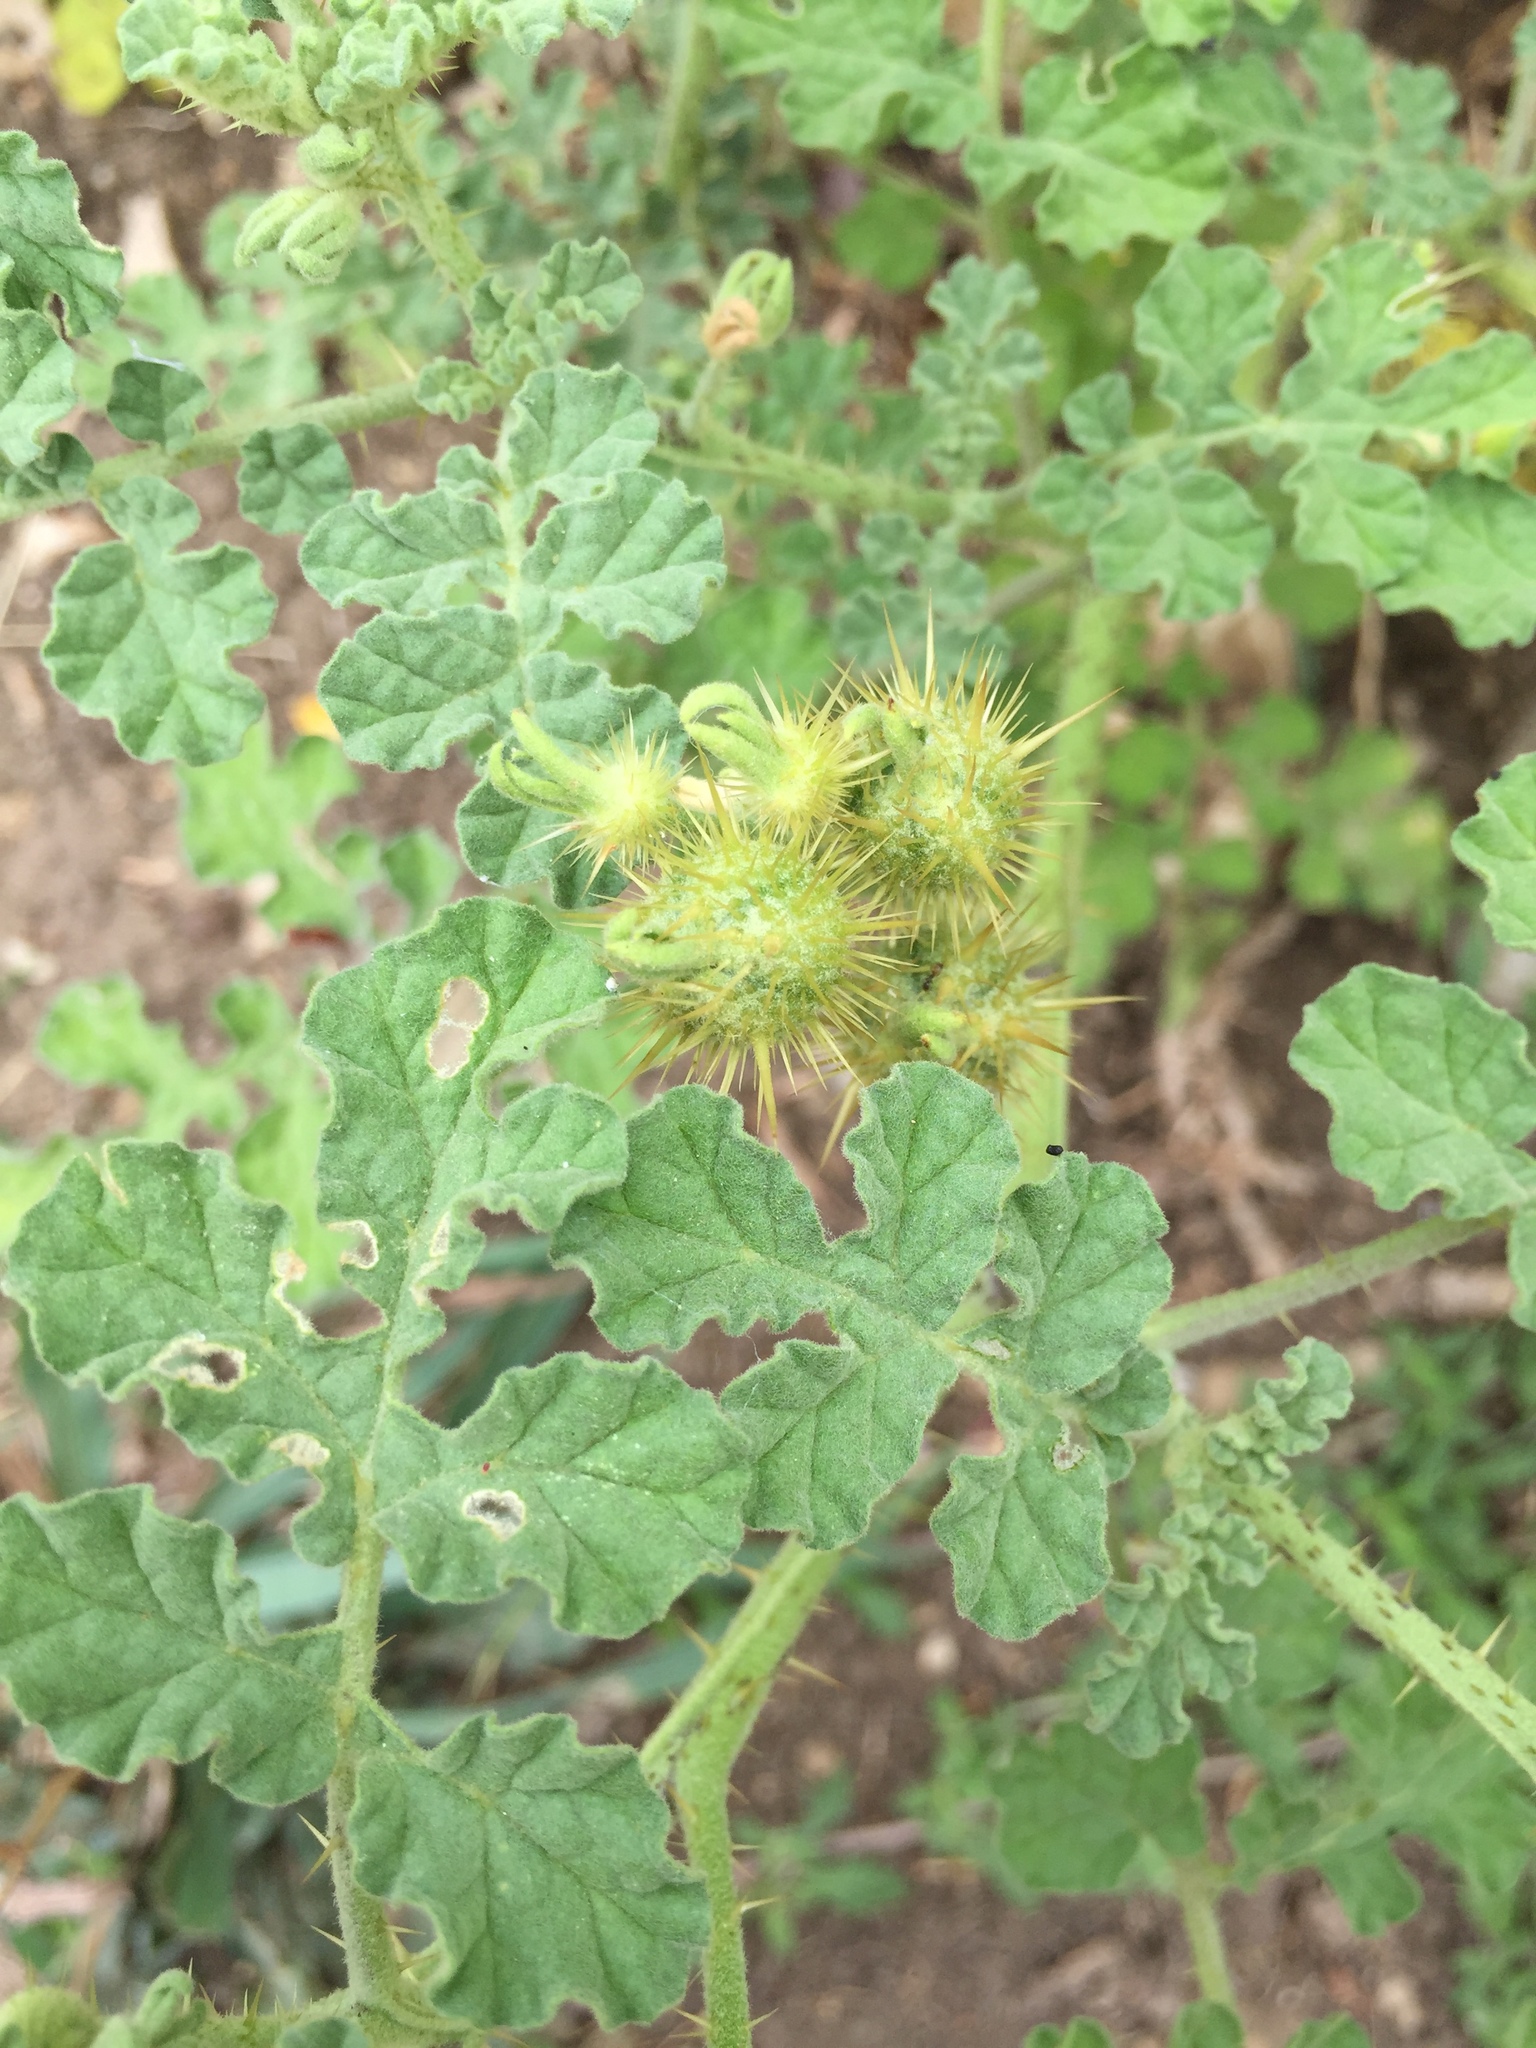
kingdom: Plantae
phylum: Tracheophyta
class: Magnoliopsida
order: Solanales
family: Solanaceae
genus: Solanum
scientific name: Solanum angustifolium
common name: Buffalobur nightshade
